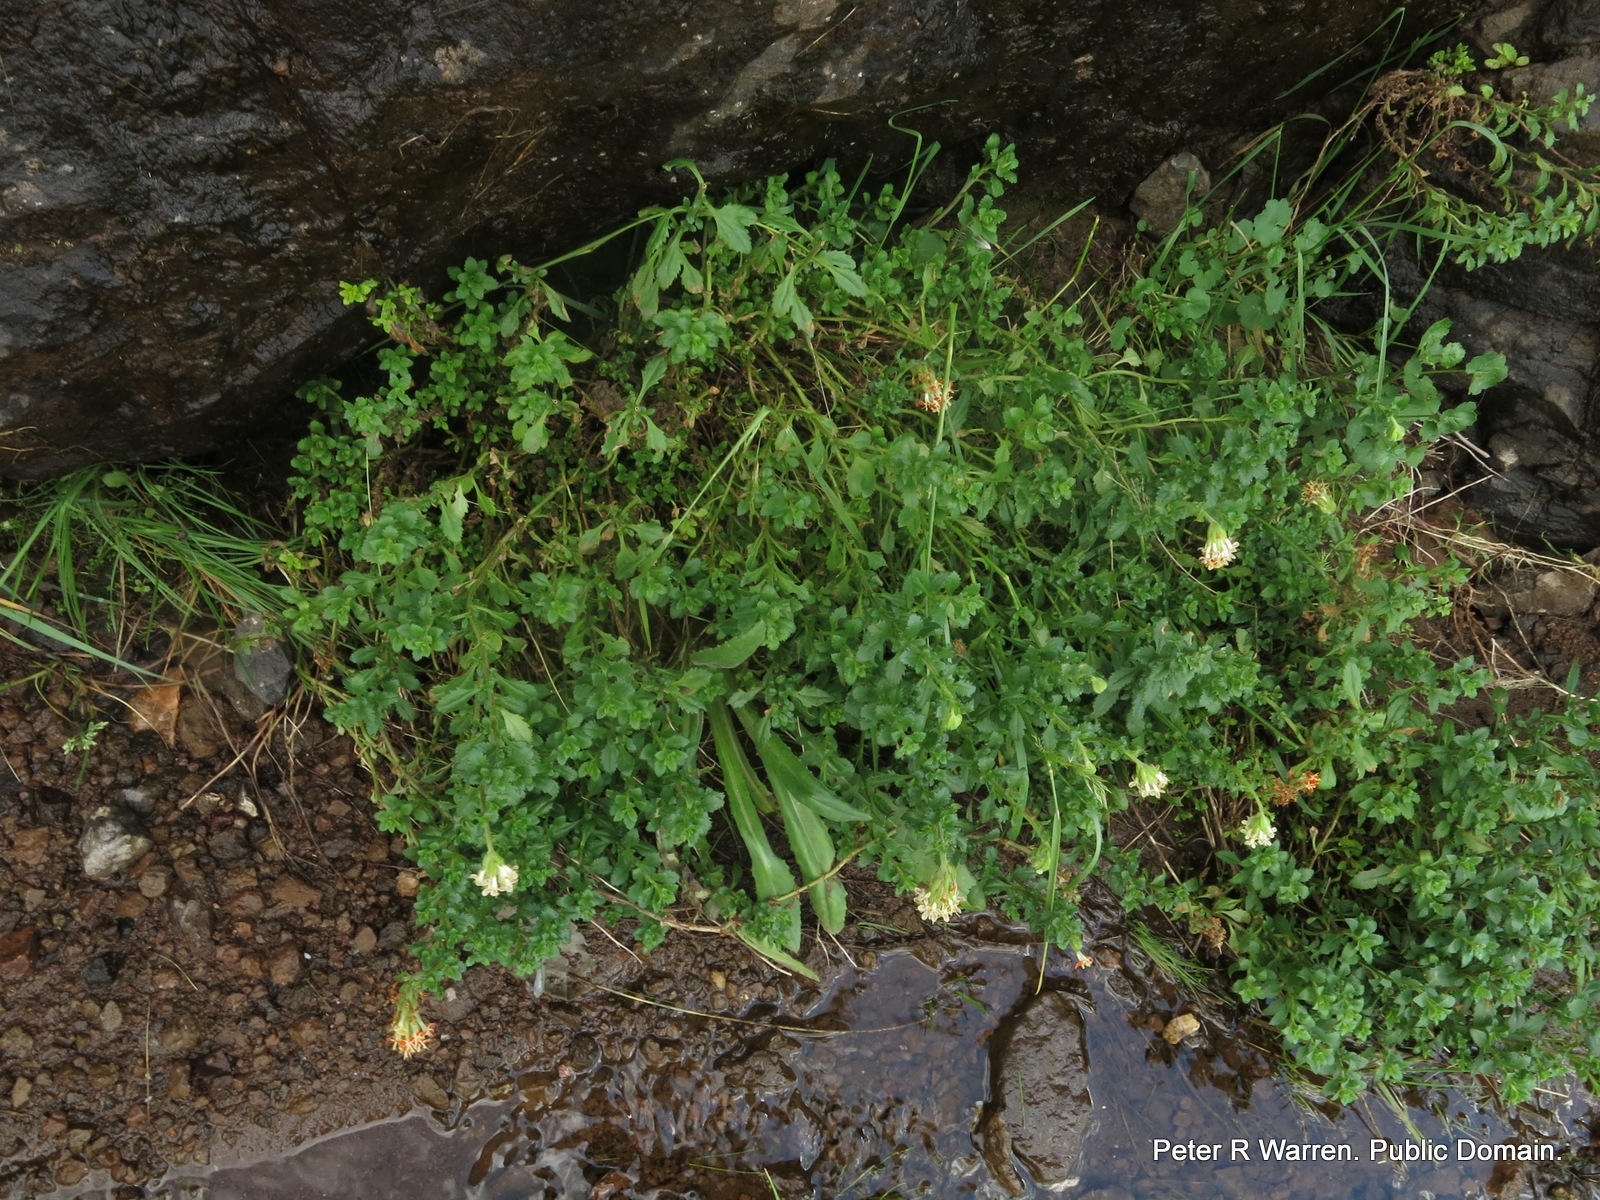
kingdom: Plantae
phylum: Tracheophyta
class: Magnoliopsida
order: Lamiales
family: Scrophulariaceae
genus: Glumicalyx
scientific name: Glumicalyx flanaganii
